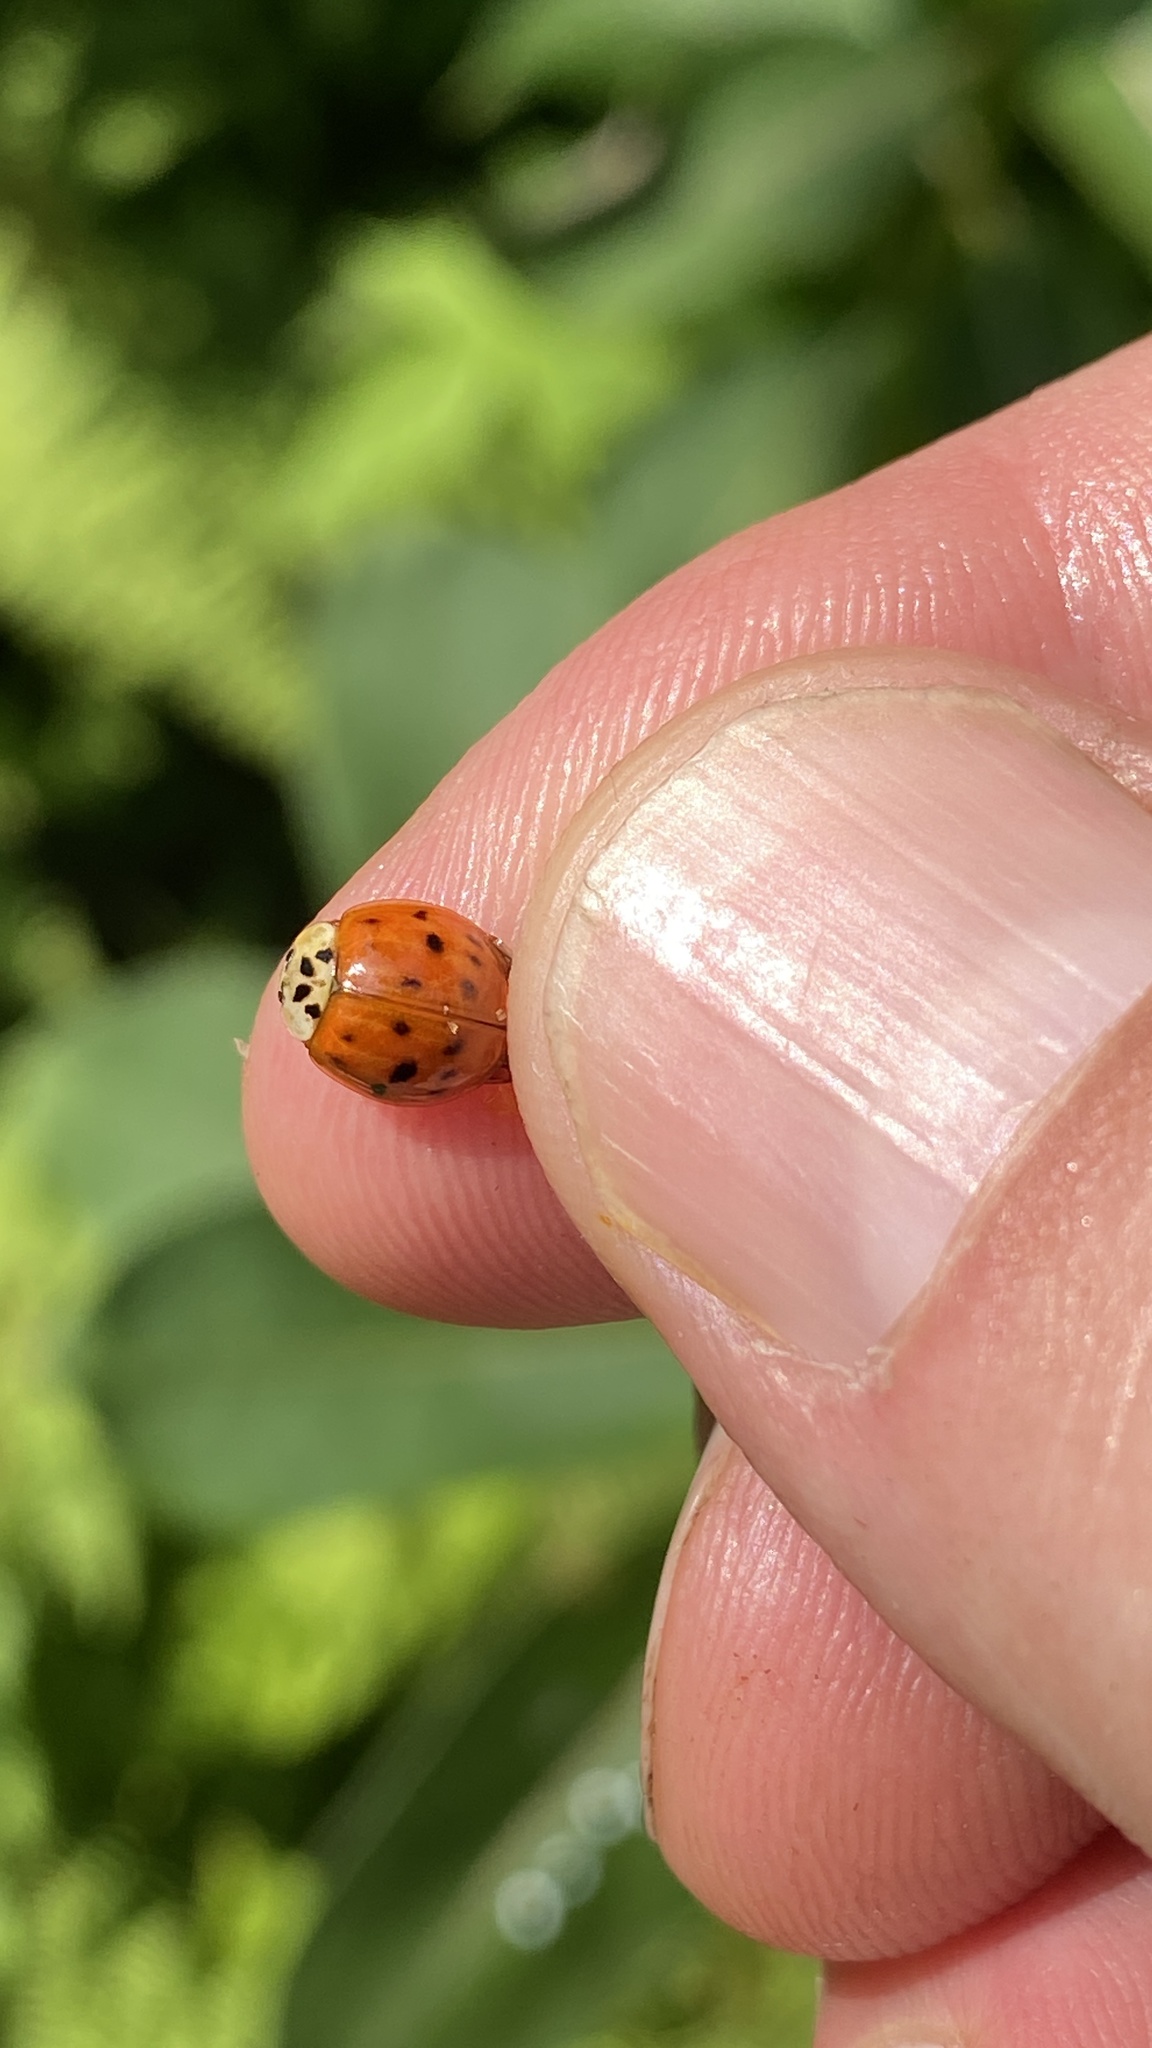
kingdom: Animalia
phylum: Arthropoda
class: Insecta
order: Coleoptera
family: Coccinellidae
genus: Harmonia
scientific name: Harmonia axyridis
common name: Harlequin ladybird
